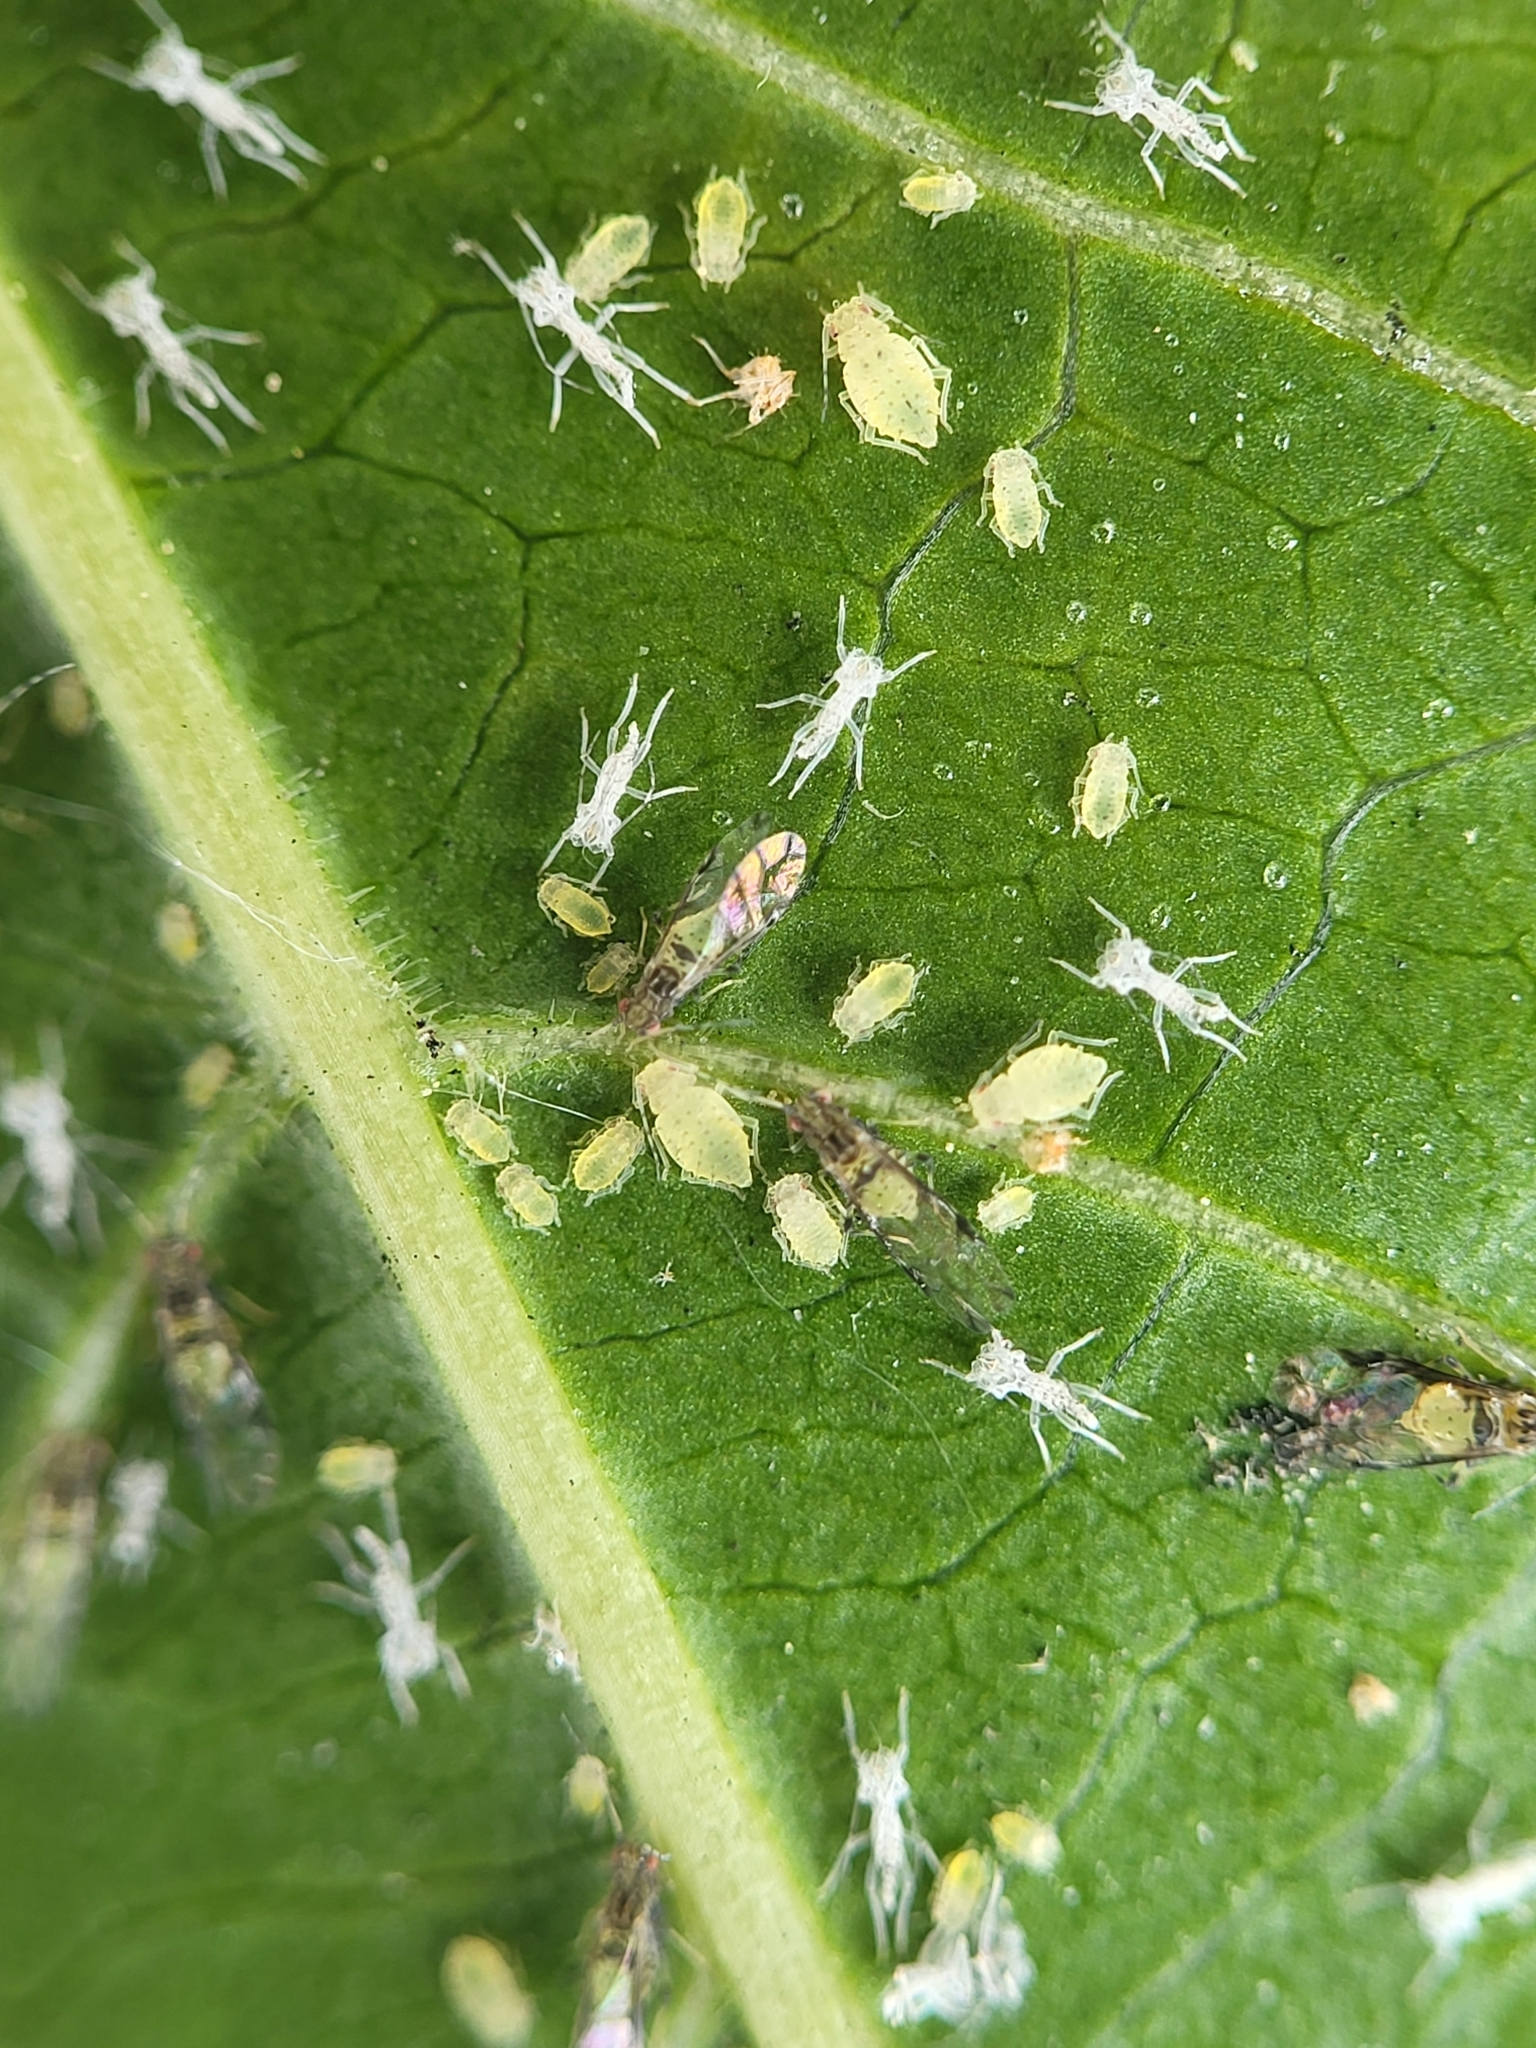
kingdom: Animalia
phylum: Arthropoda
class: Insecta
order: Hemiptera
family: Aphididae
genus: Sarucallis
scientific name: Sarucallis kahawaluokalani
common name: Crapemyrtle aphid
